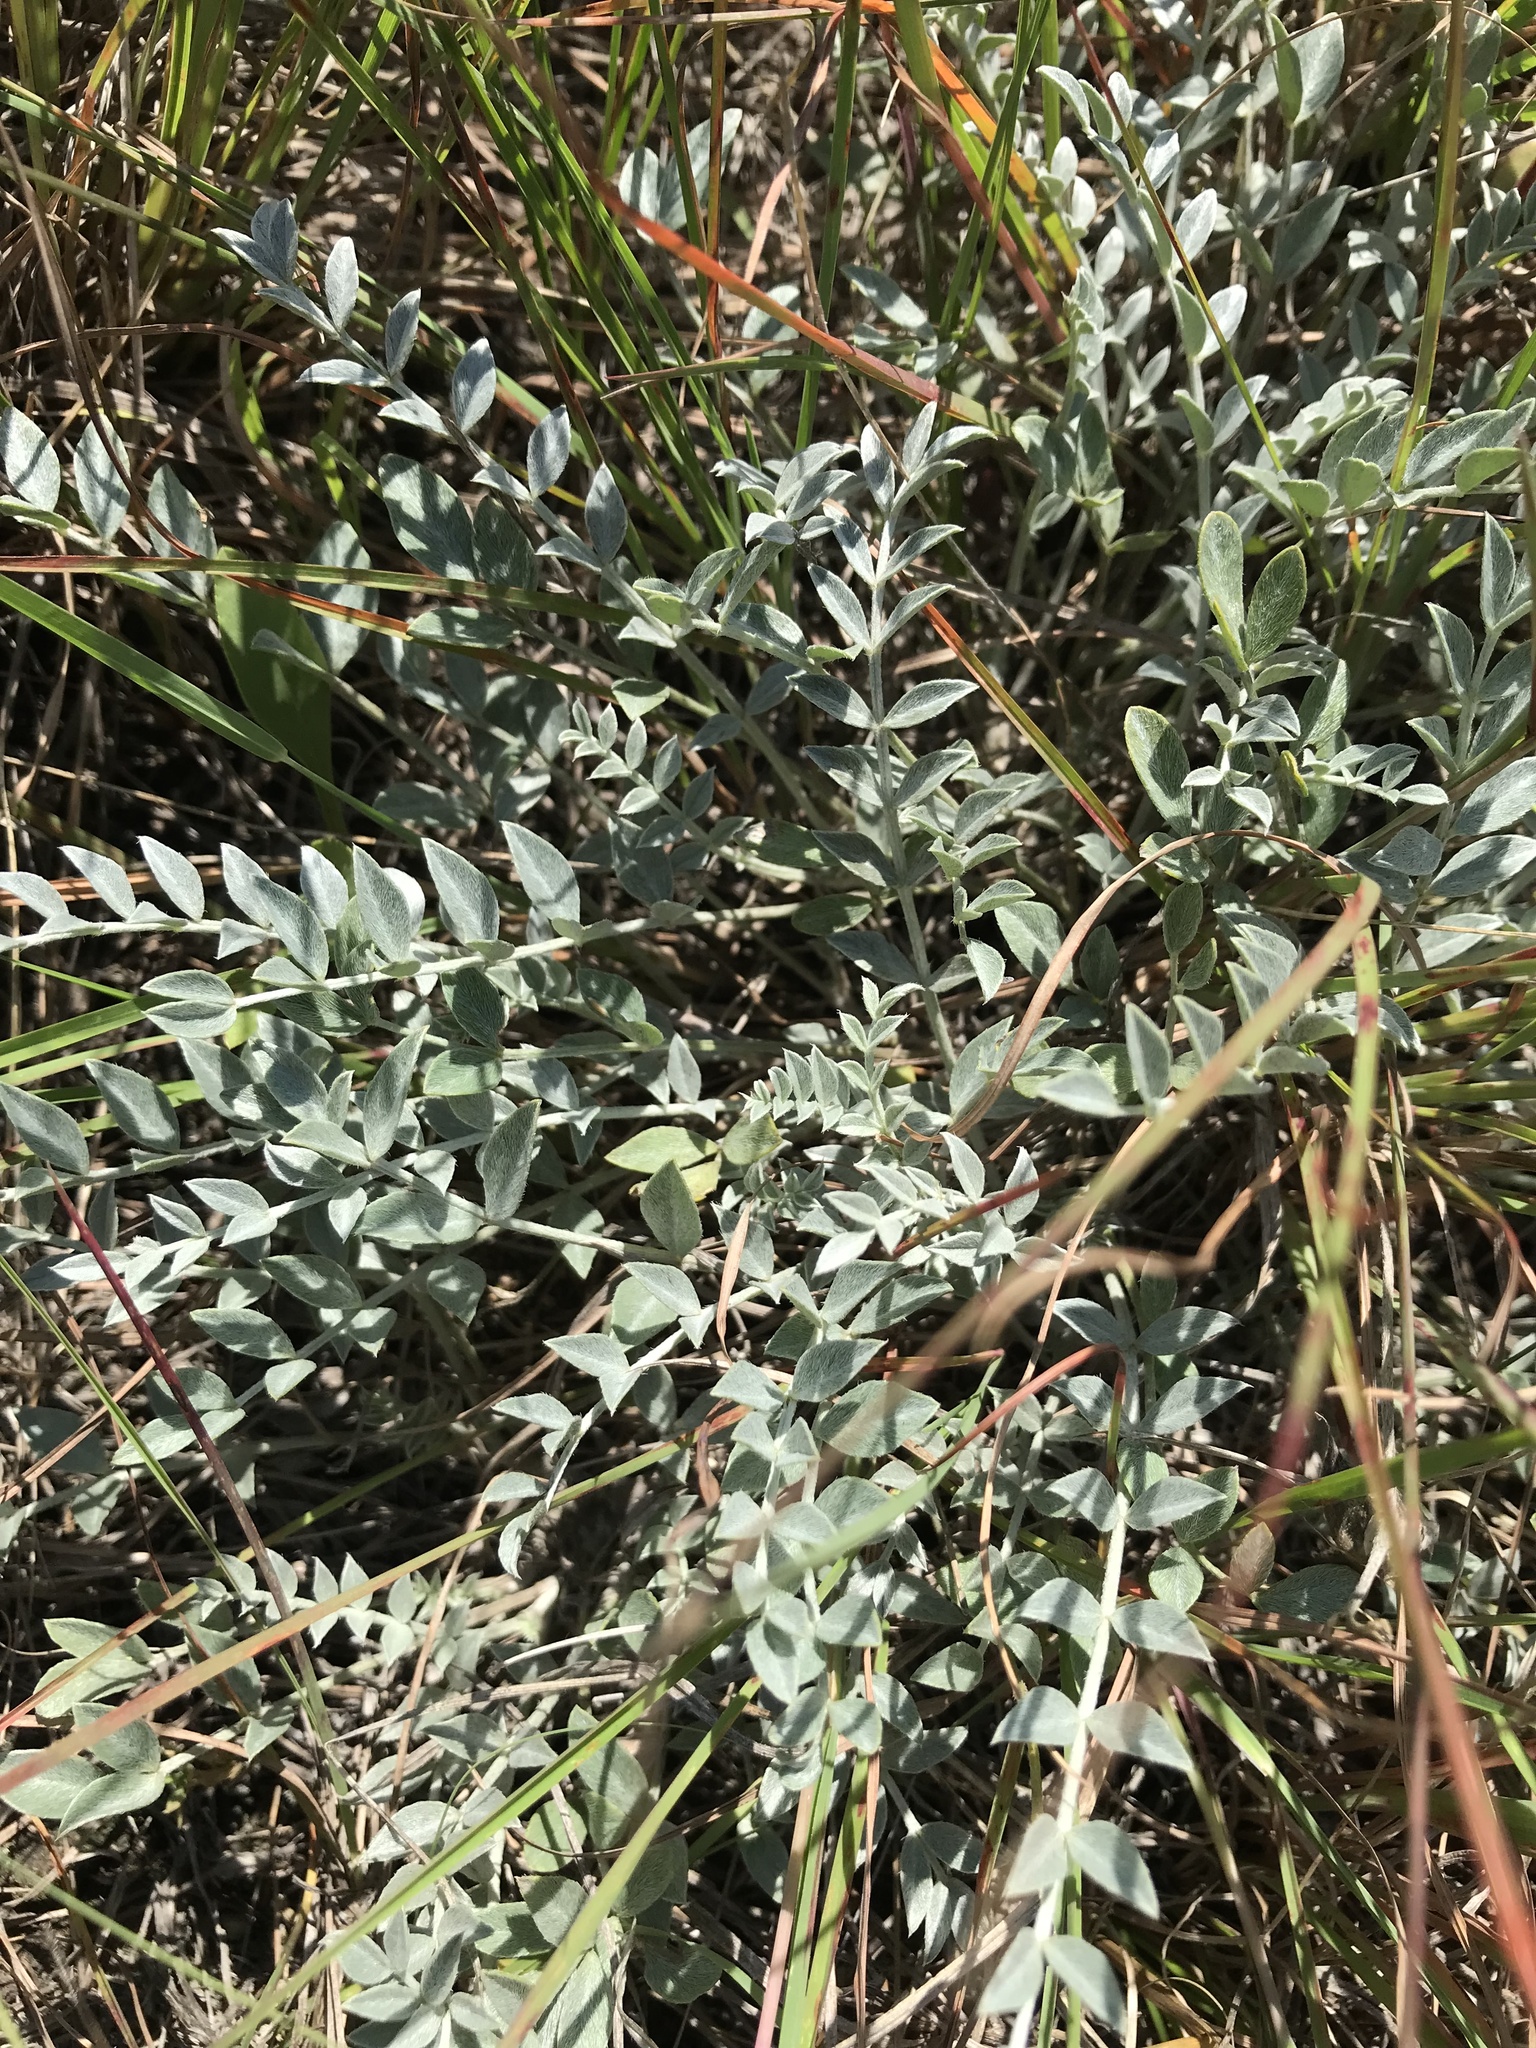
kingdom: Plantae
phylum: Tracheophyta
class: Magnoliopsida
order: Fabales
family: Fabaceae
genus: Astragalus
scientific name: Astragalus missouriensis
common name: Missouri milk-vetch
